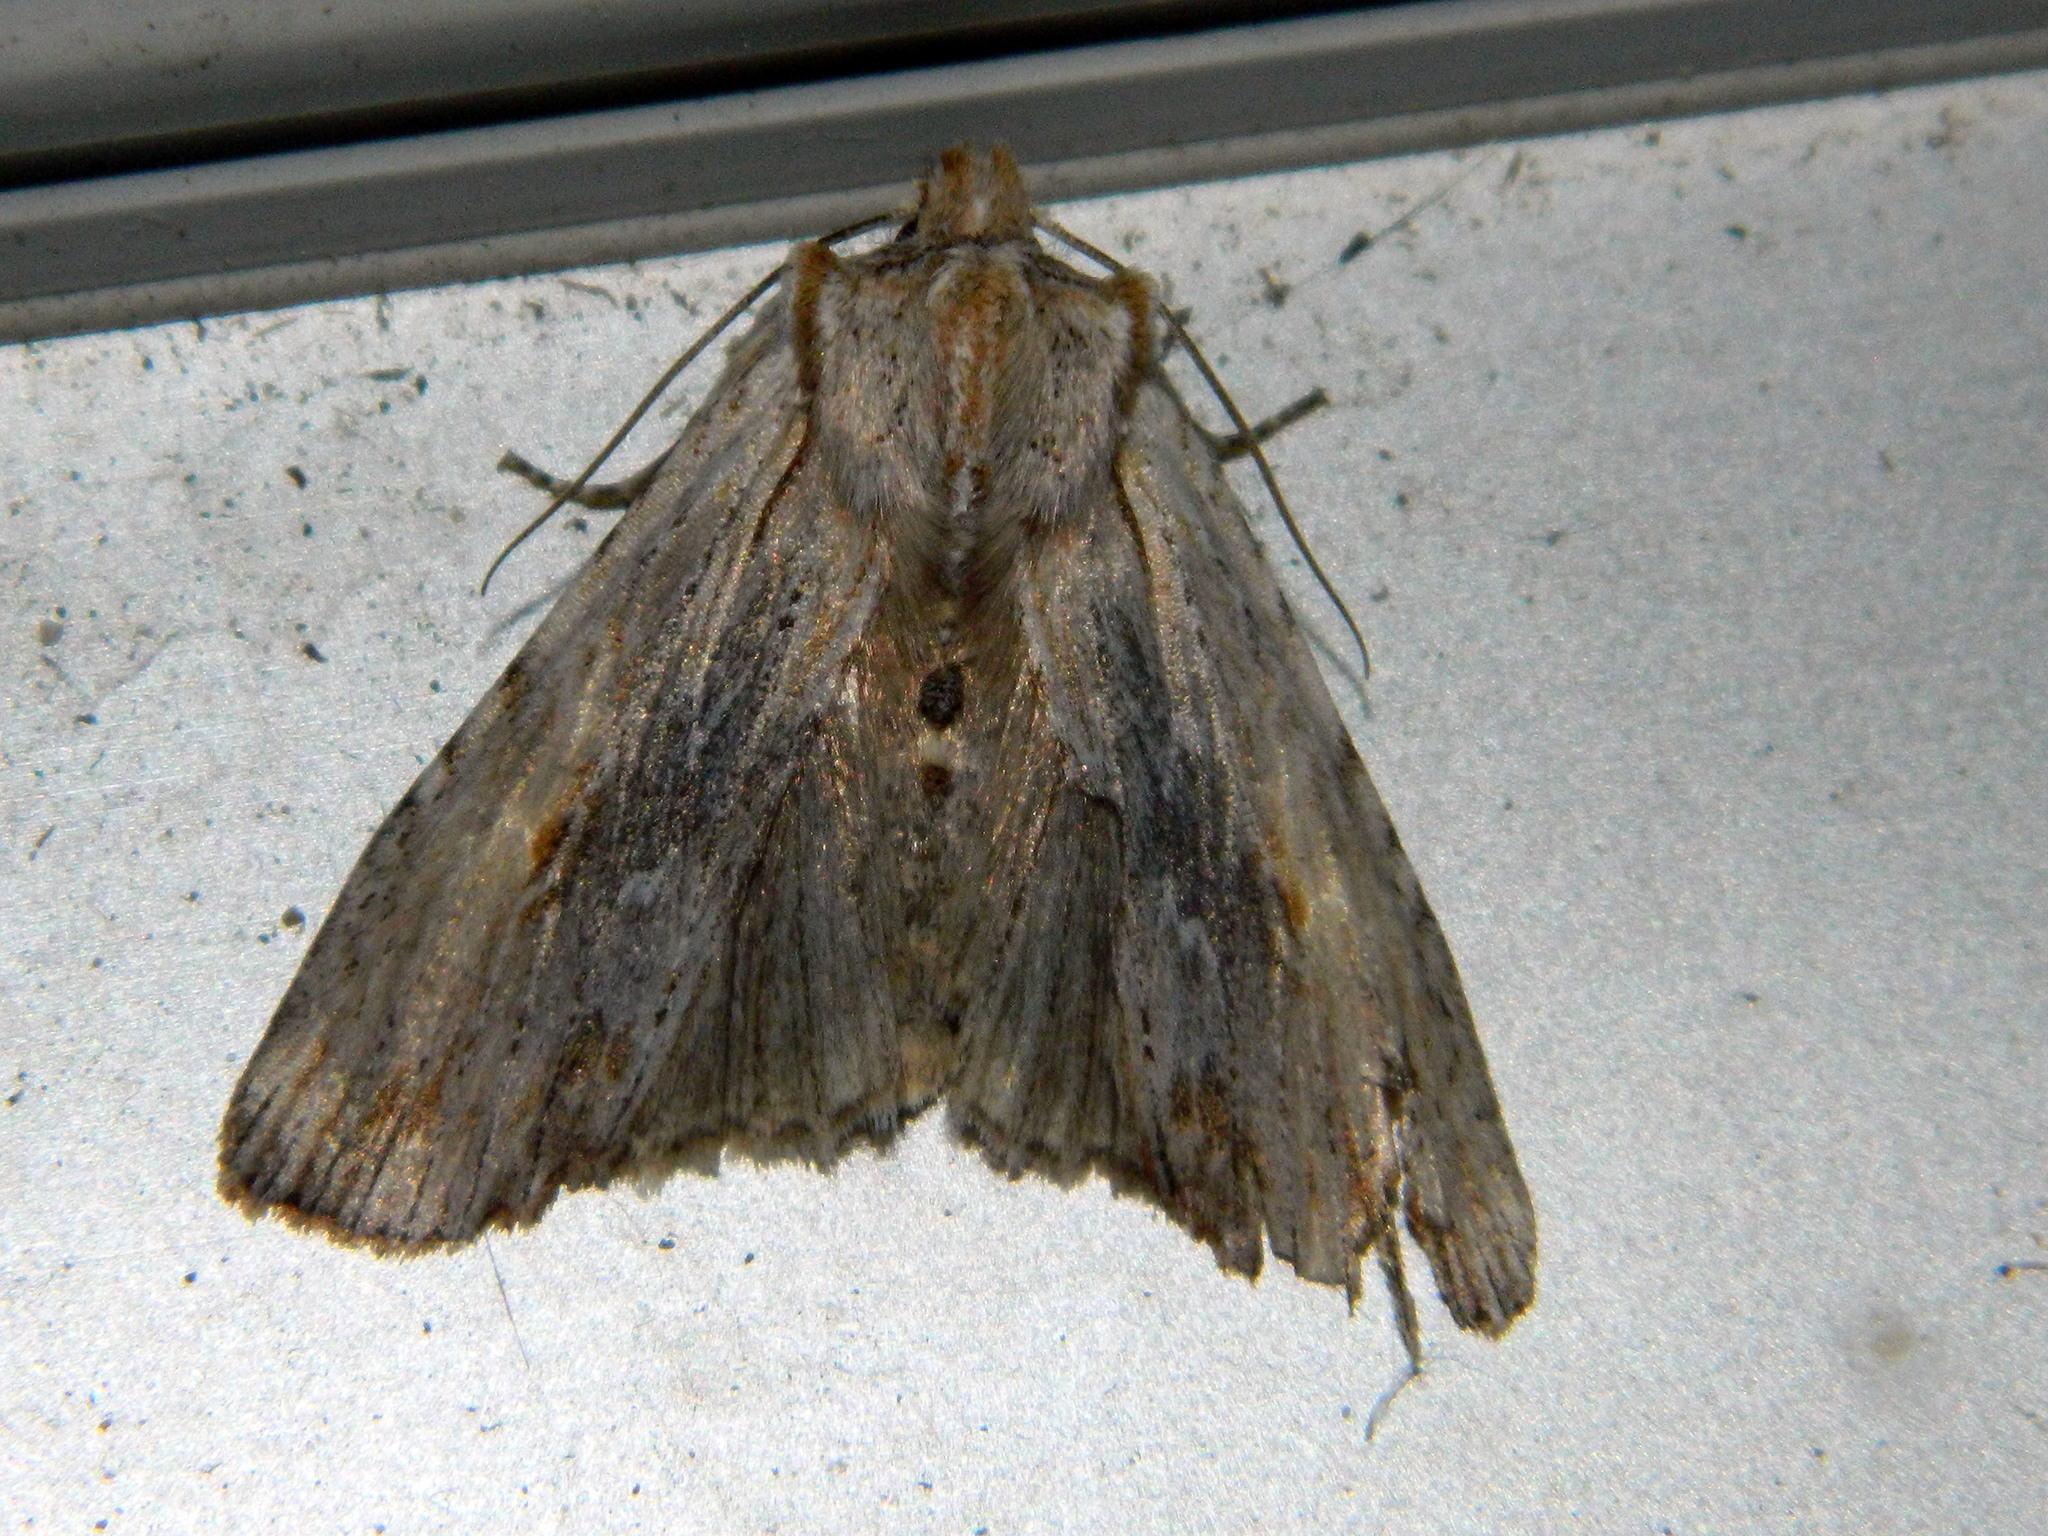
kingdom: Animalia
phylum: Arthropoda
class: Insecta
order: Lepidoptera
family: Noctuidae
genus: Lithophane
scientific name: Lithophane amanda
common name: Amanda's pinion moth
